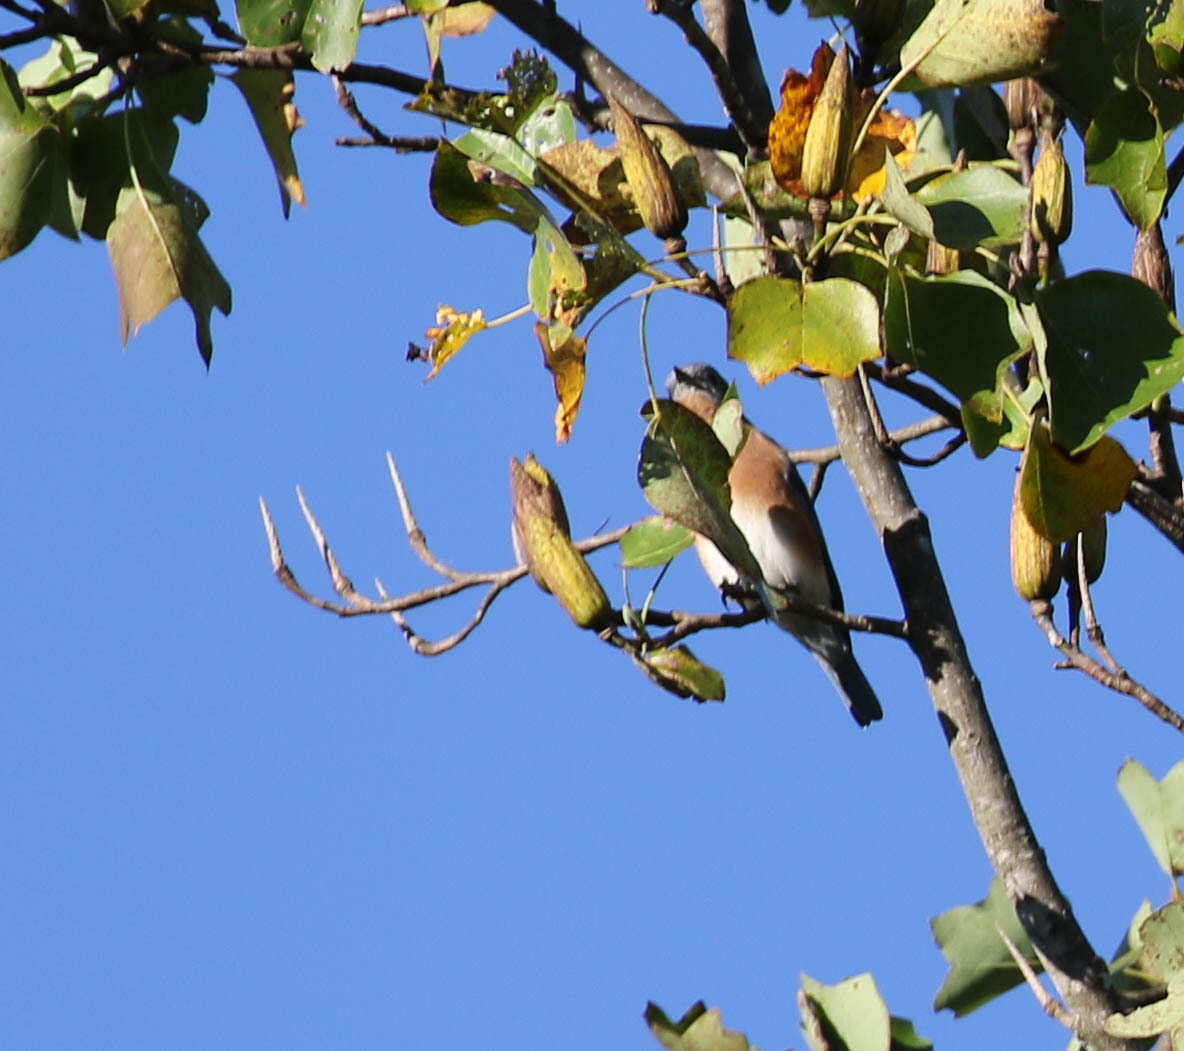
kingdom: Animalia
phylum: Chordata
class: Aves
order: Passeriformes
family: Turdidae
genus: Sialia
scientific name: Sialia sialis
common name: Eastern bluebird
